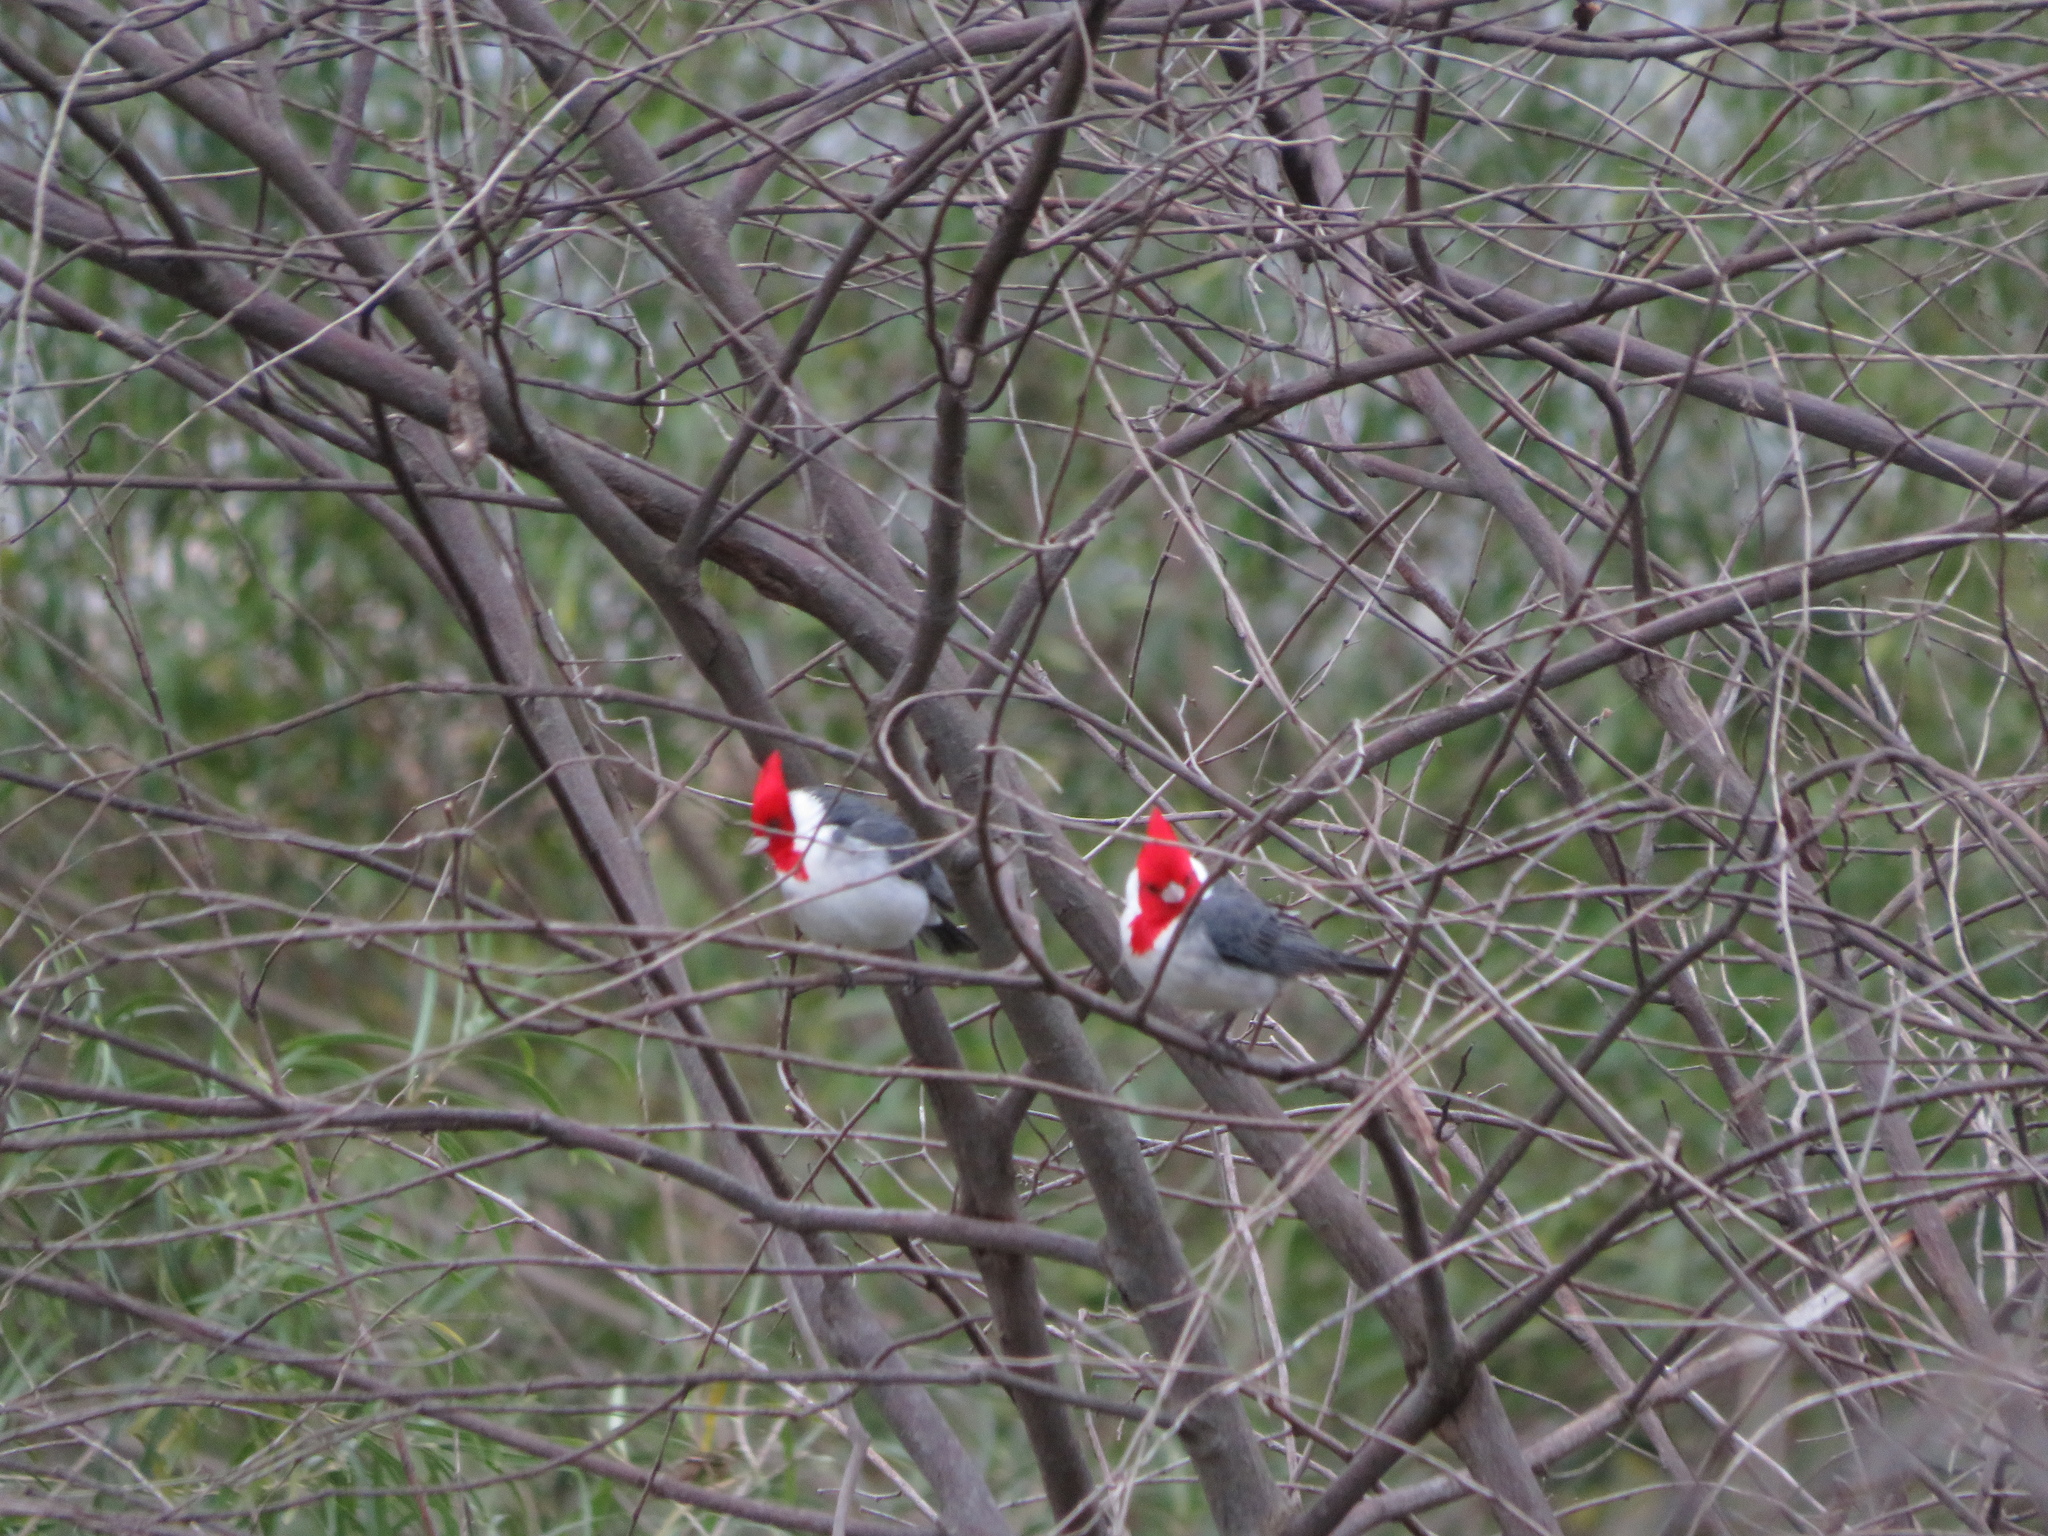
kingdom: Animalia
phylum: Chordata
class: Aves
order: Passeriformes
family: Thraupidae
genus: Paroaria
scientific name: Paroaria coronata
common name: Red-crested cardinal
